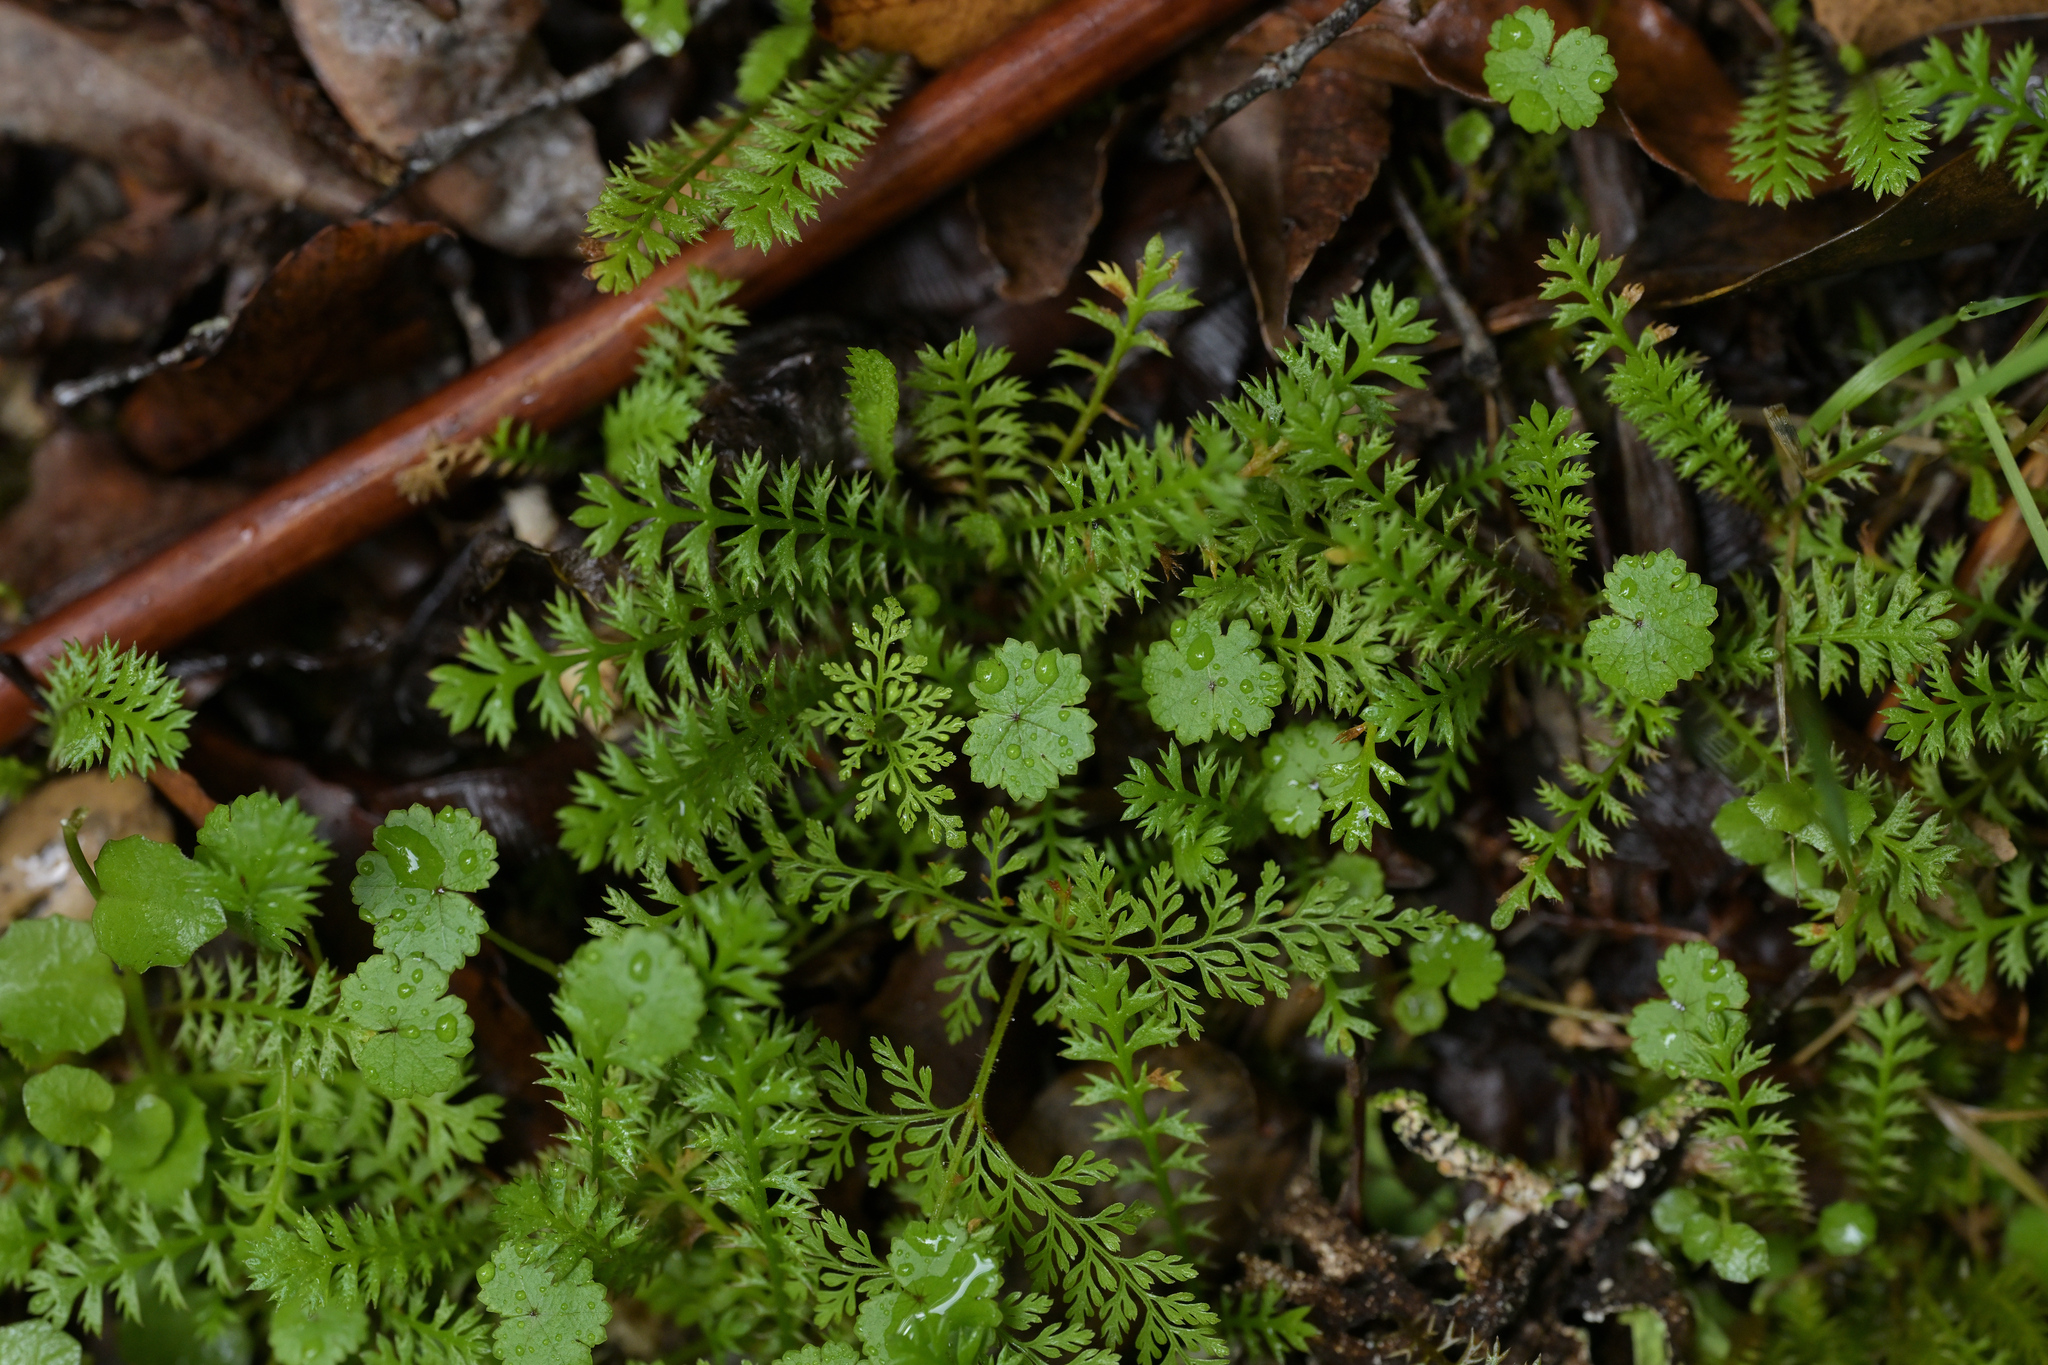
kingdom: Plantae
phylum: Tracheophyta
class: Magnoliopsida
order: Asterales
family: Asteraceae
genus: Leptinella
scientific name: Leptinella squalida
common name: New zealand brass-buttons
